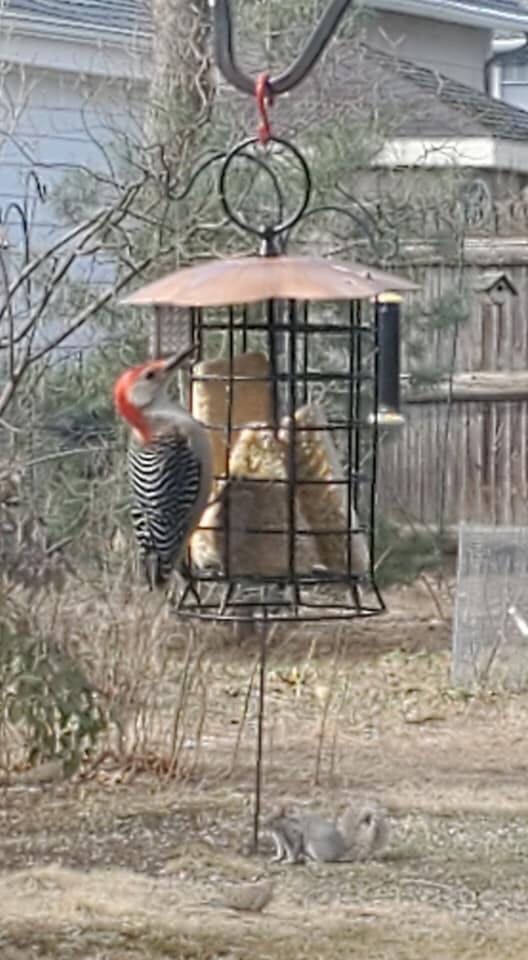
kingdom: Animalia
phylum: Chordata
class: Aves
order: Piciformes
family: Picidae
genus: Melanerpes
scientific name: Melanerpes carolinus
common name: Red-bellied woodpecker
